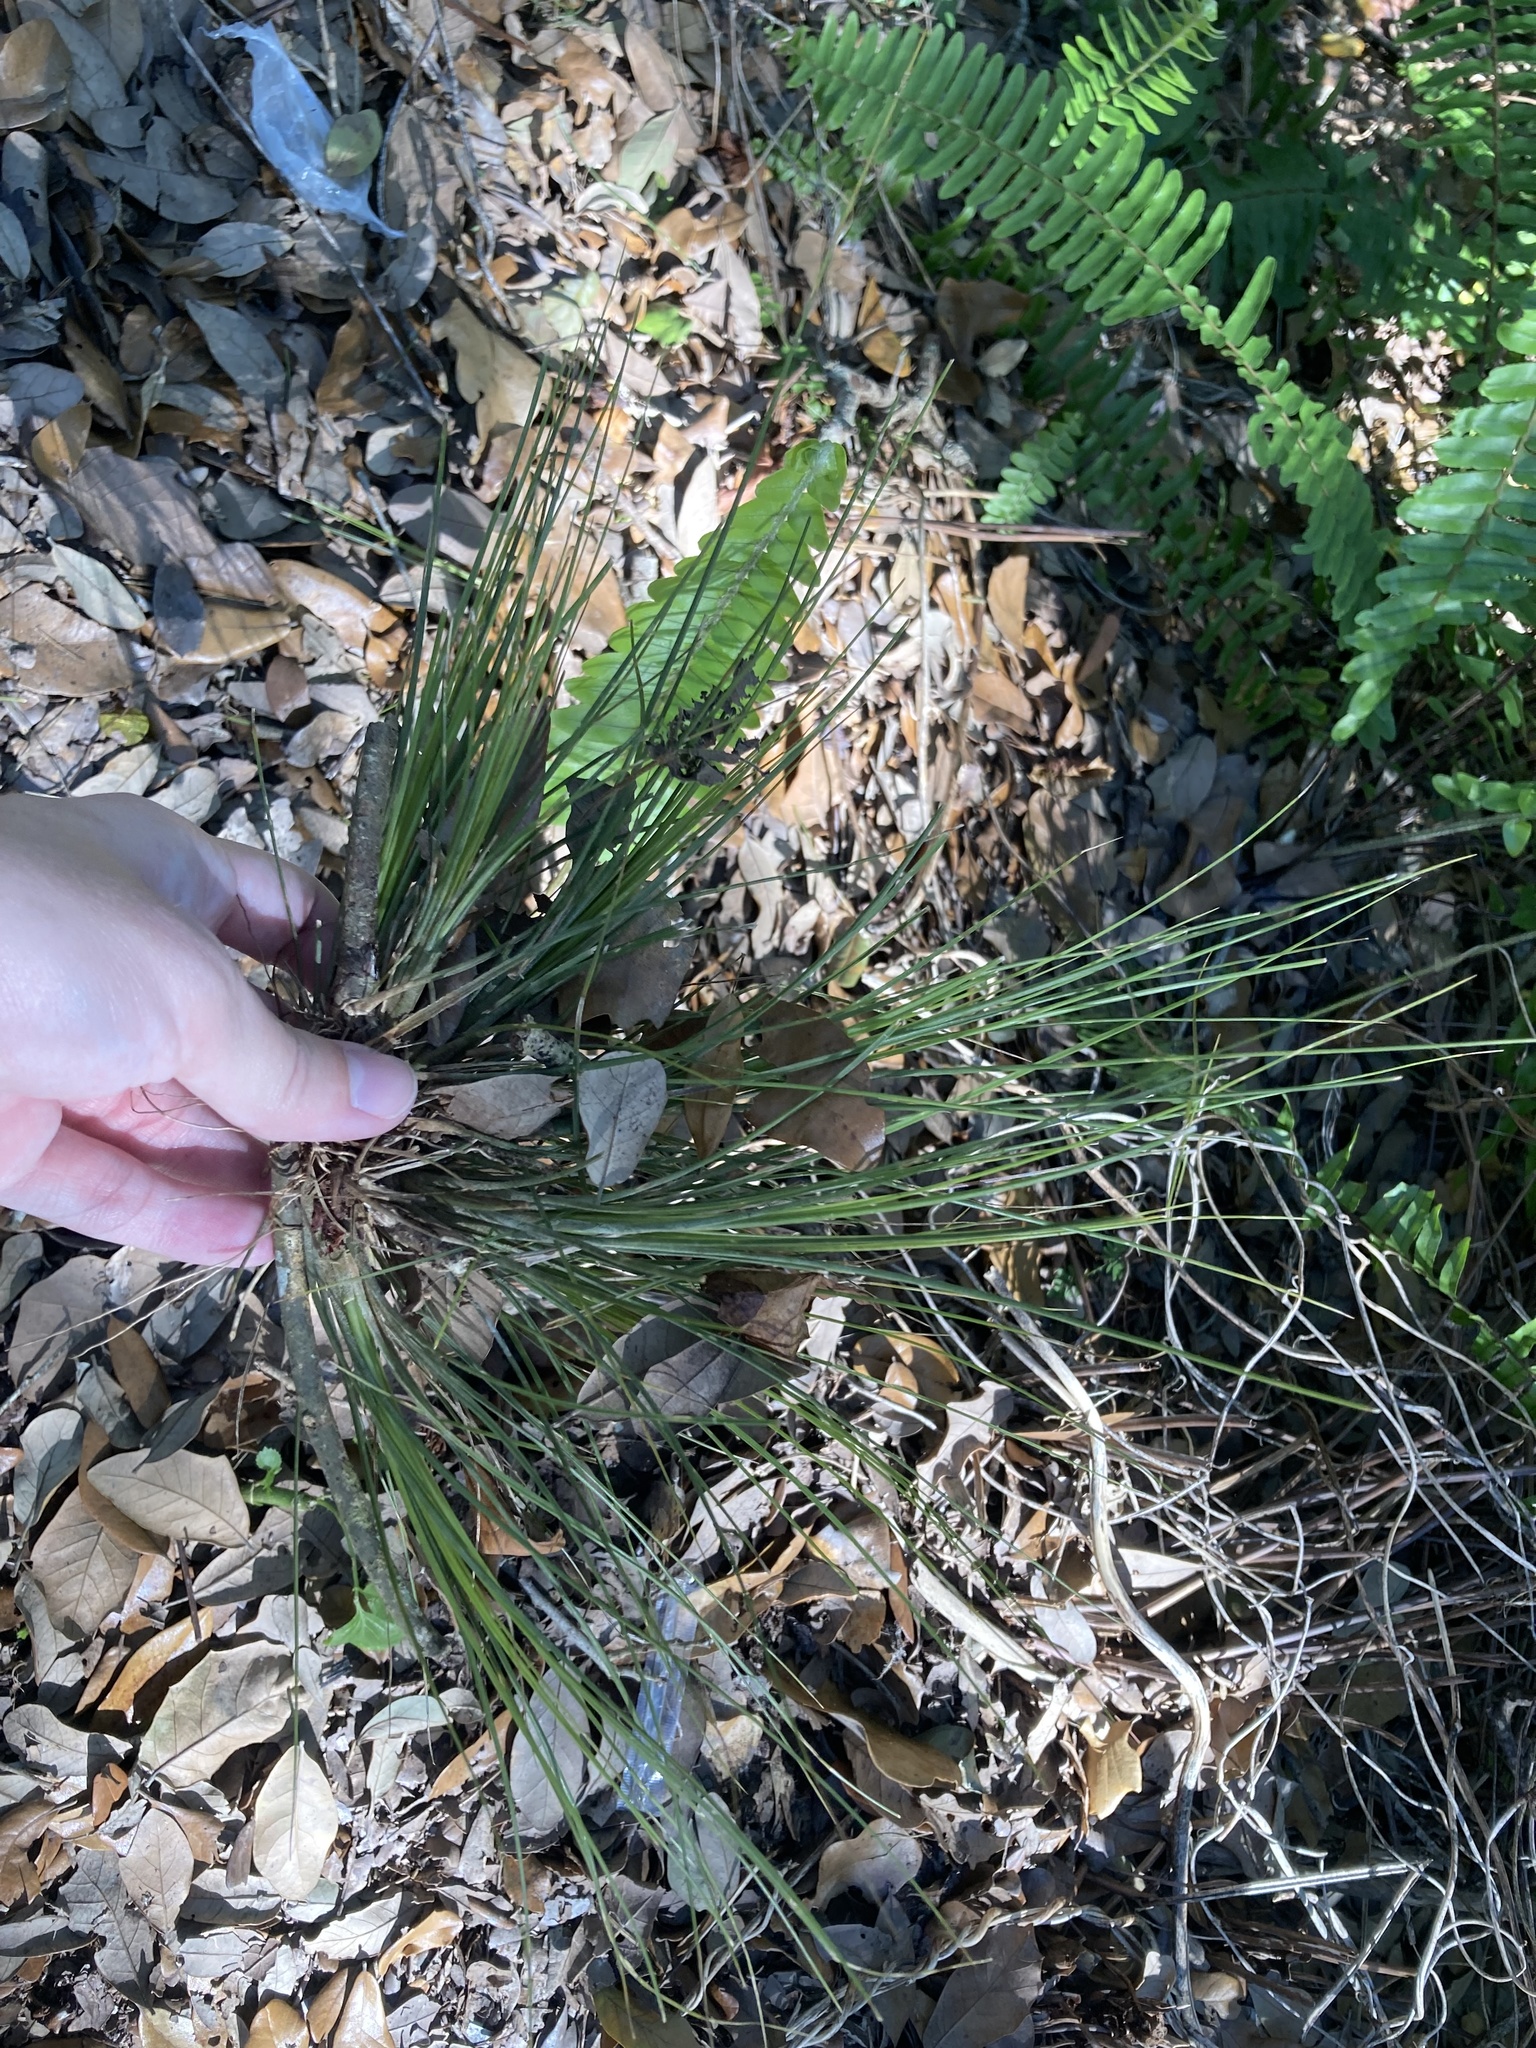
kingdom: Plantae
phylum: Tracheophyta
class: Liliopsida
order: Poales
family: Bromeliaceae
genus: Tillandsia
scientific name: Tillandsia setacea
